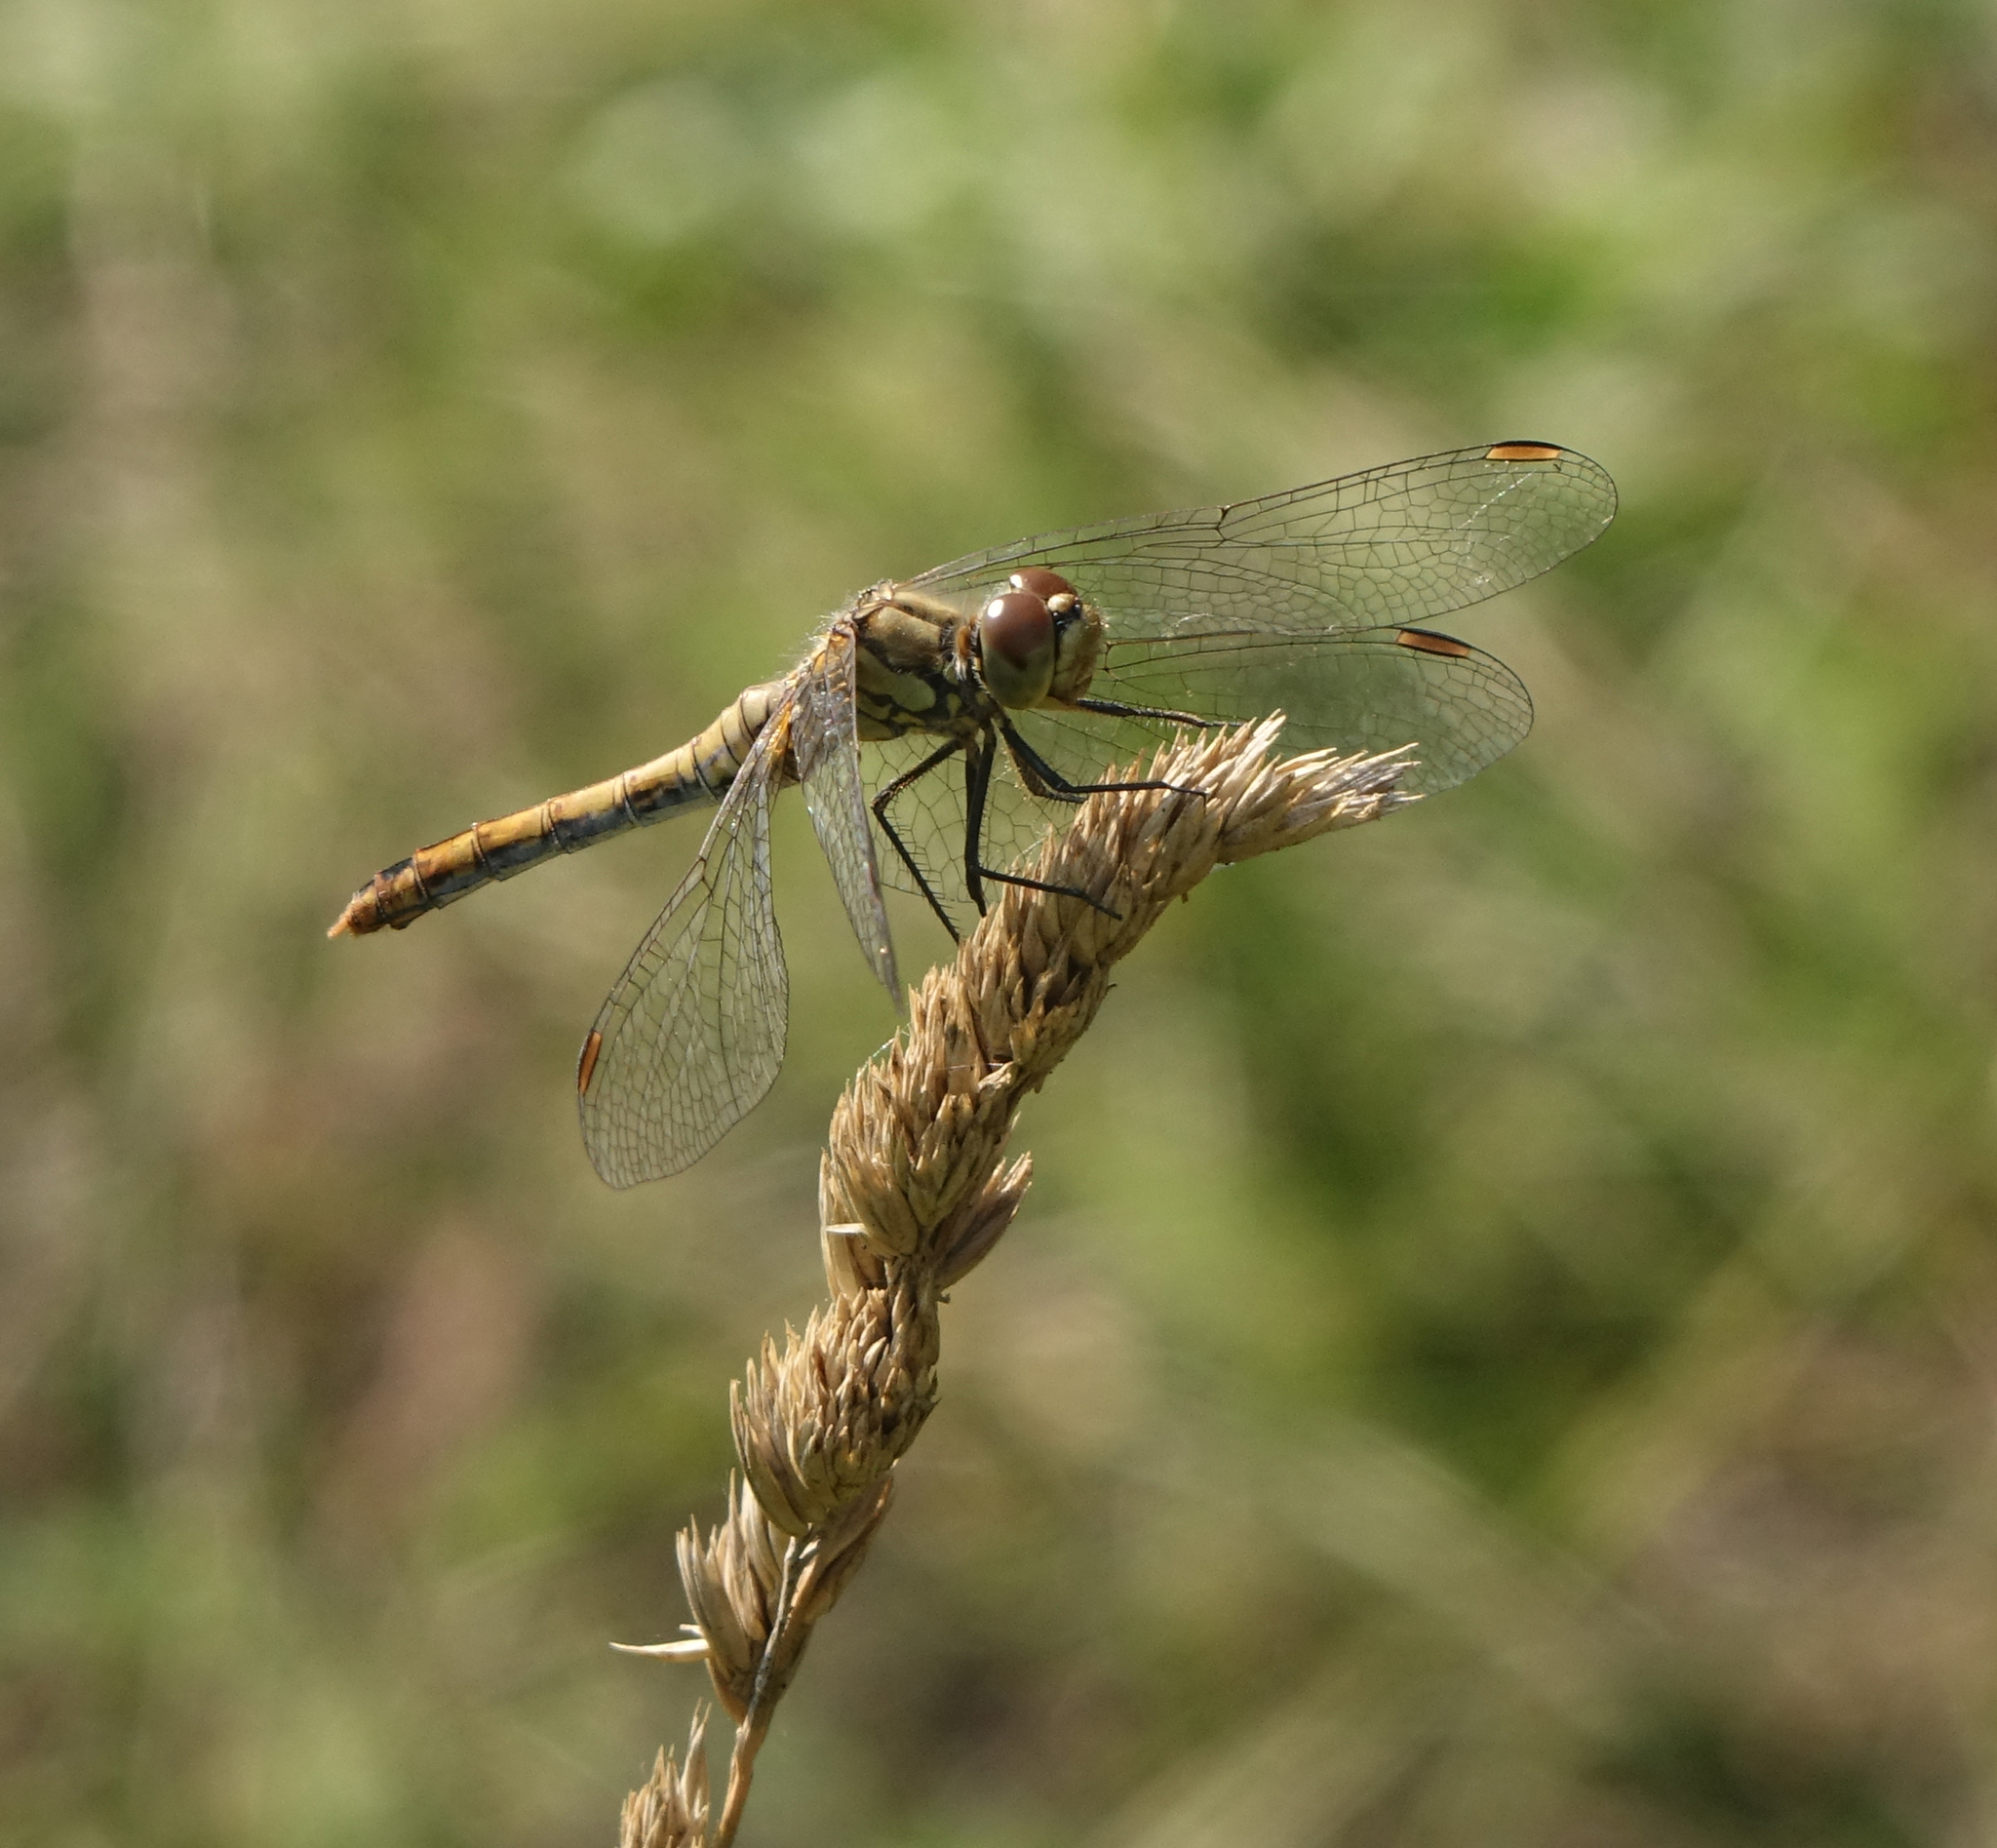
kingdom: Animalia
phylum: Arthropoda
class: Insecta
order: Odonata
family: Libellulidae
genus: Sympetrum
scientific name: Sympetrum sanguineum
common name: Ruddy darter
